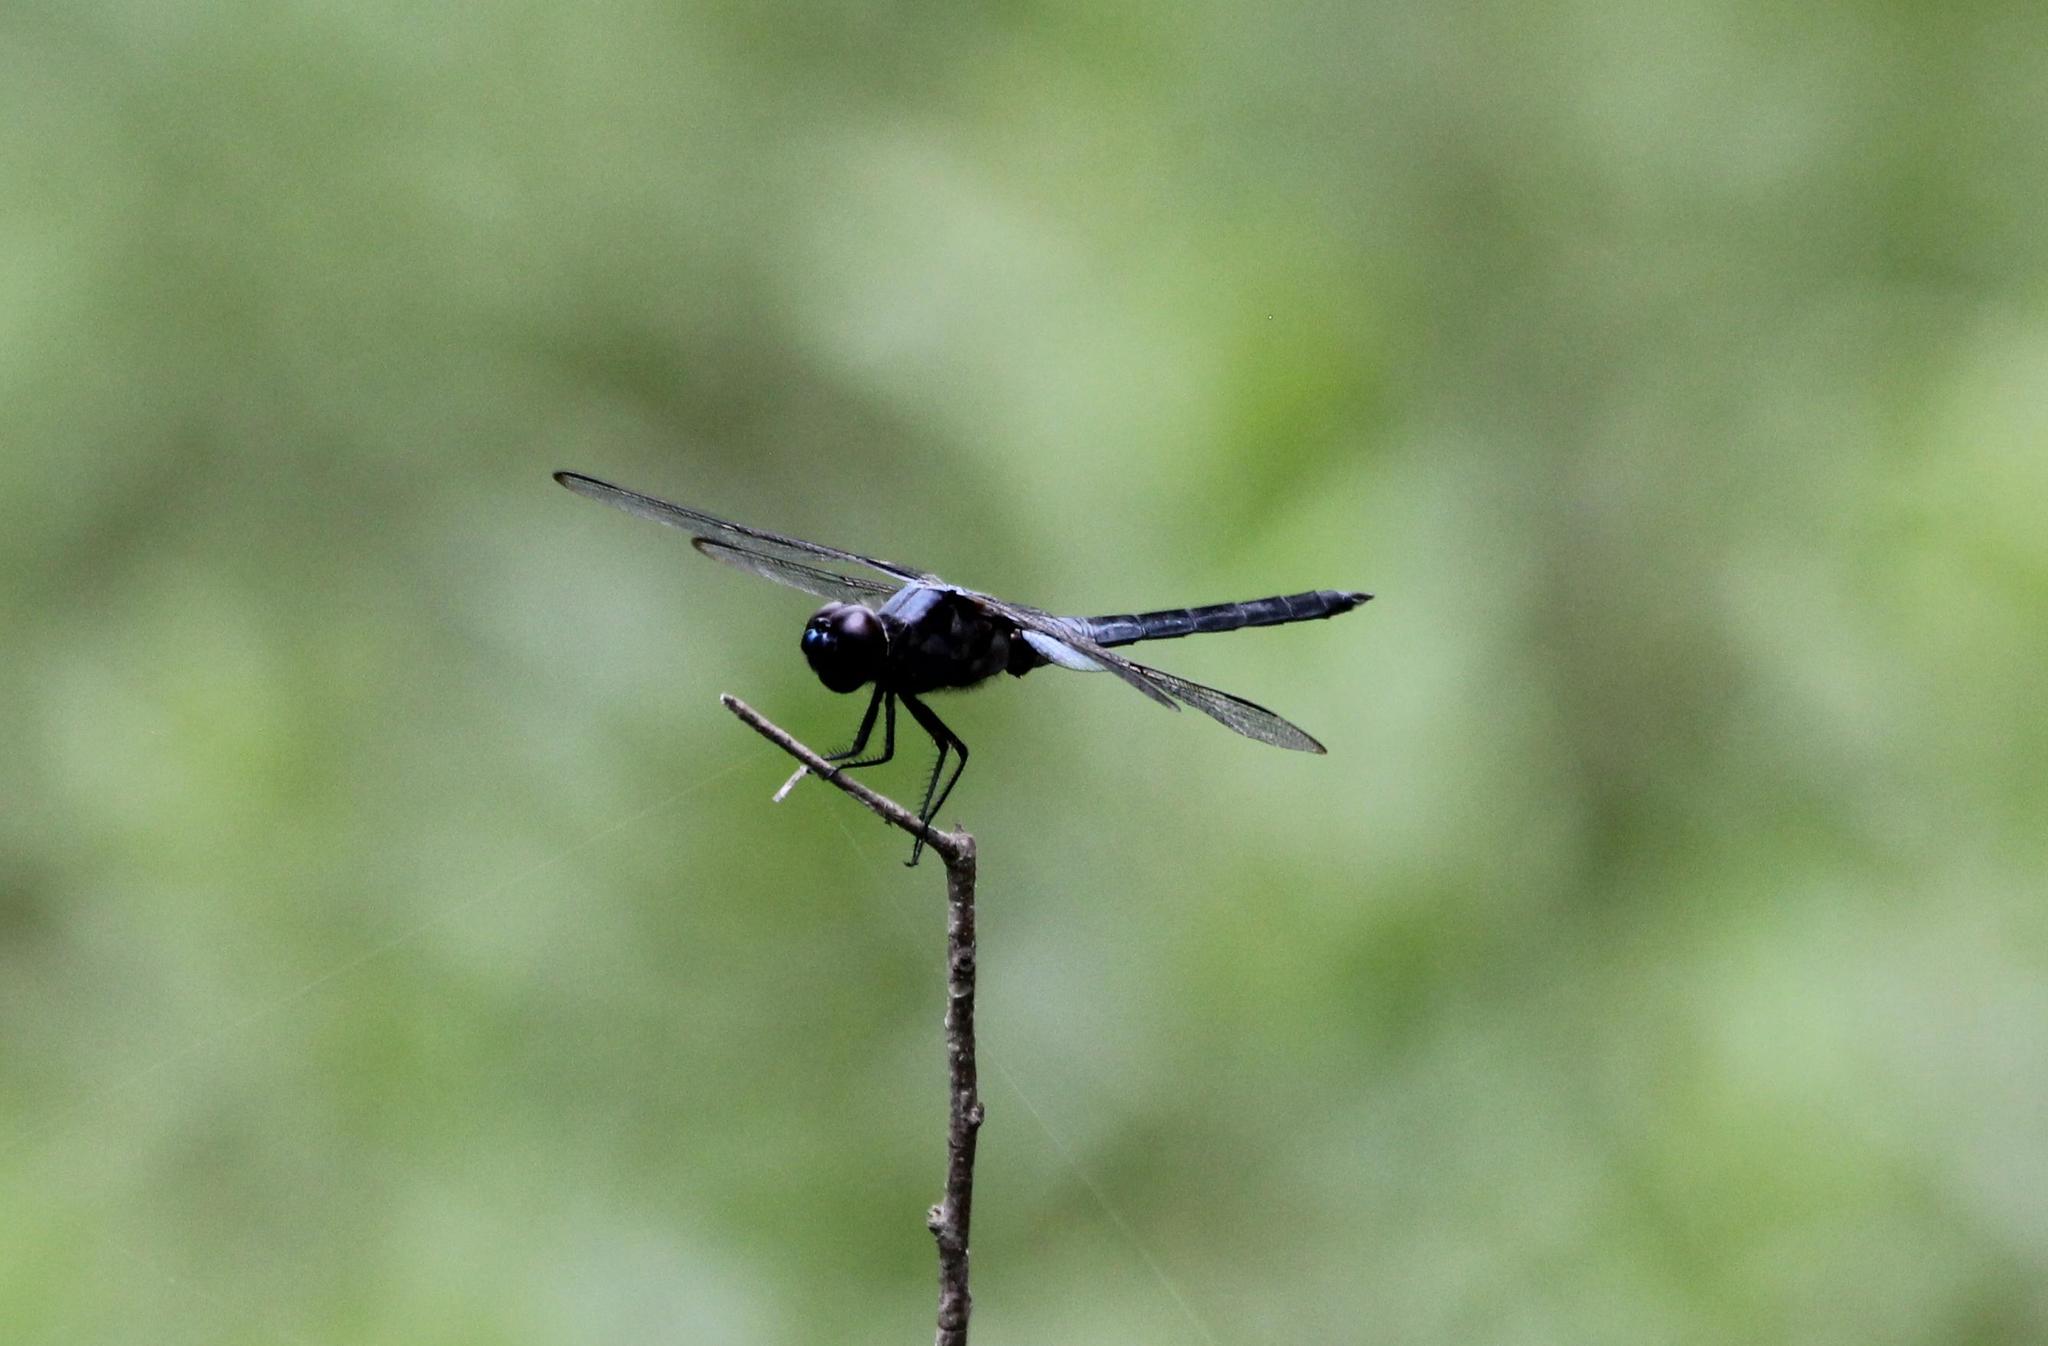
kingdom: Animalia
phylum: Arthropoda
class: Insecta
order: Odonata
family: Libellulidae
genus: Libellula
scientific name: Libellula axilena
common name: Bar-winged skimmer
